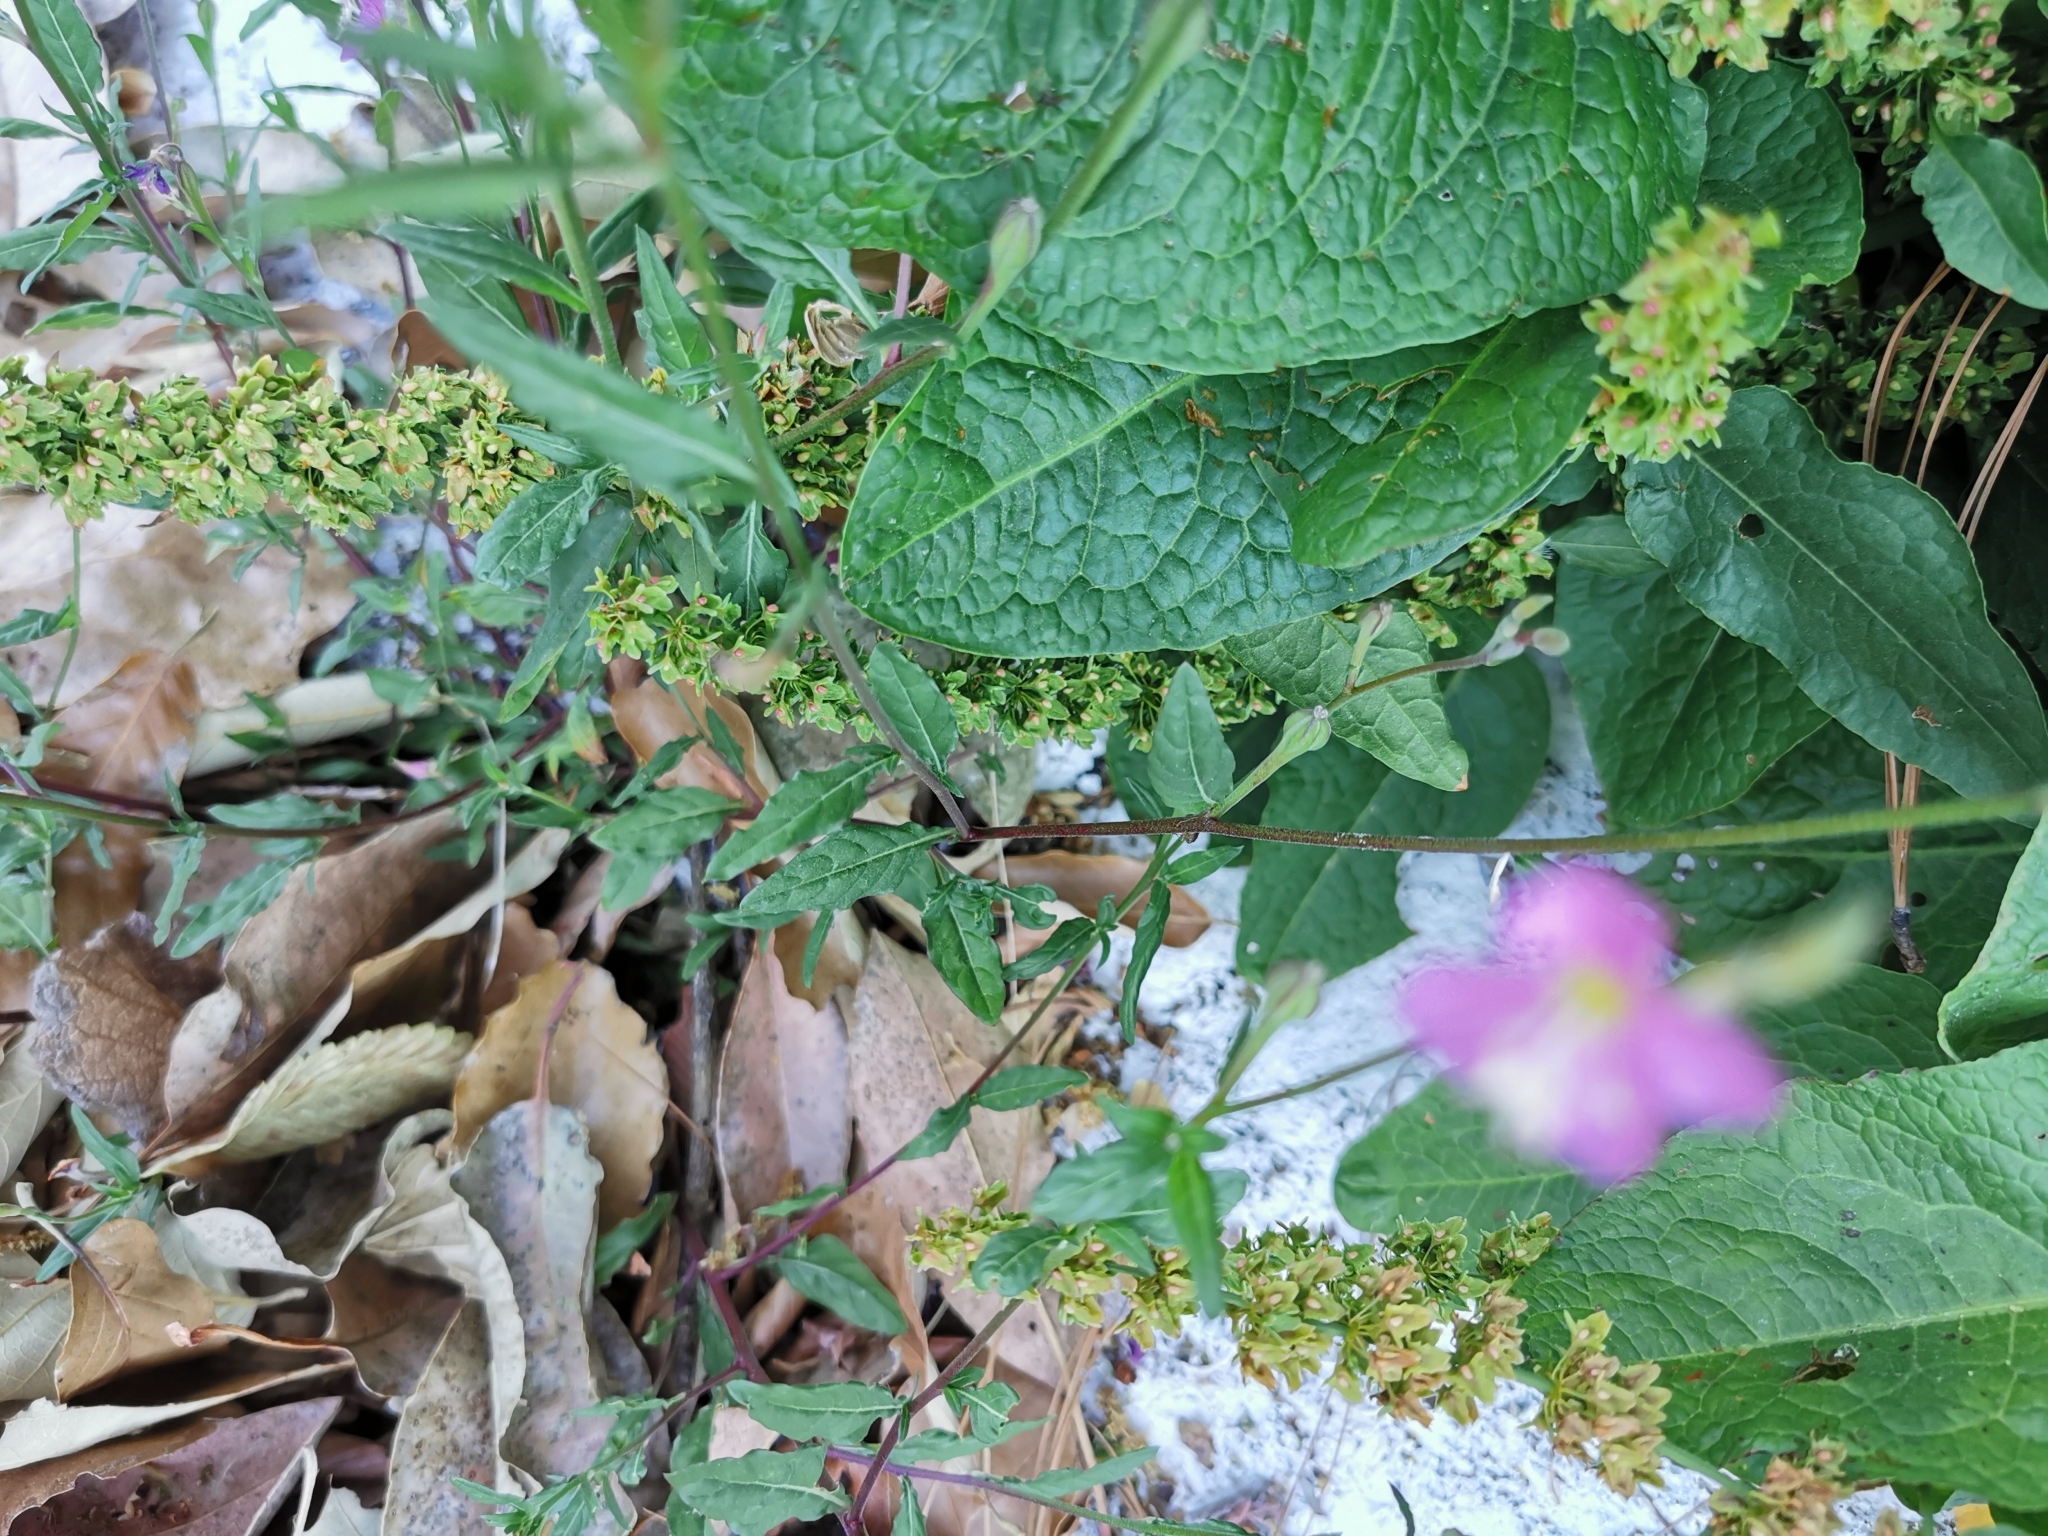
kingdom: Plantae
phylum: Tracheophyta
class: Magnoliopsida
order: Myrtales
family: Onagraceae
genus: Oenothera
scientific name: Oenothera rosea
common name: Rosy evening-primrose
